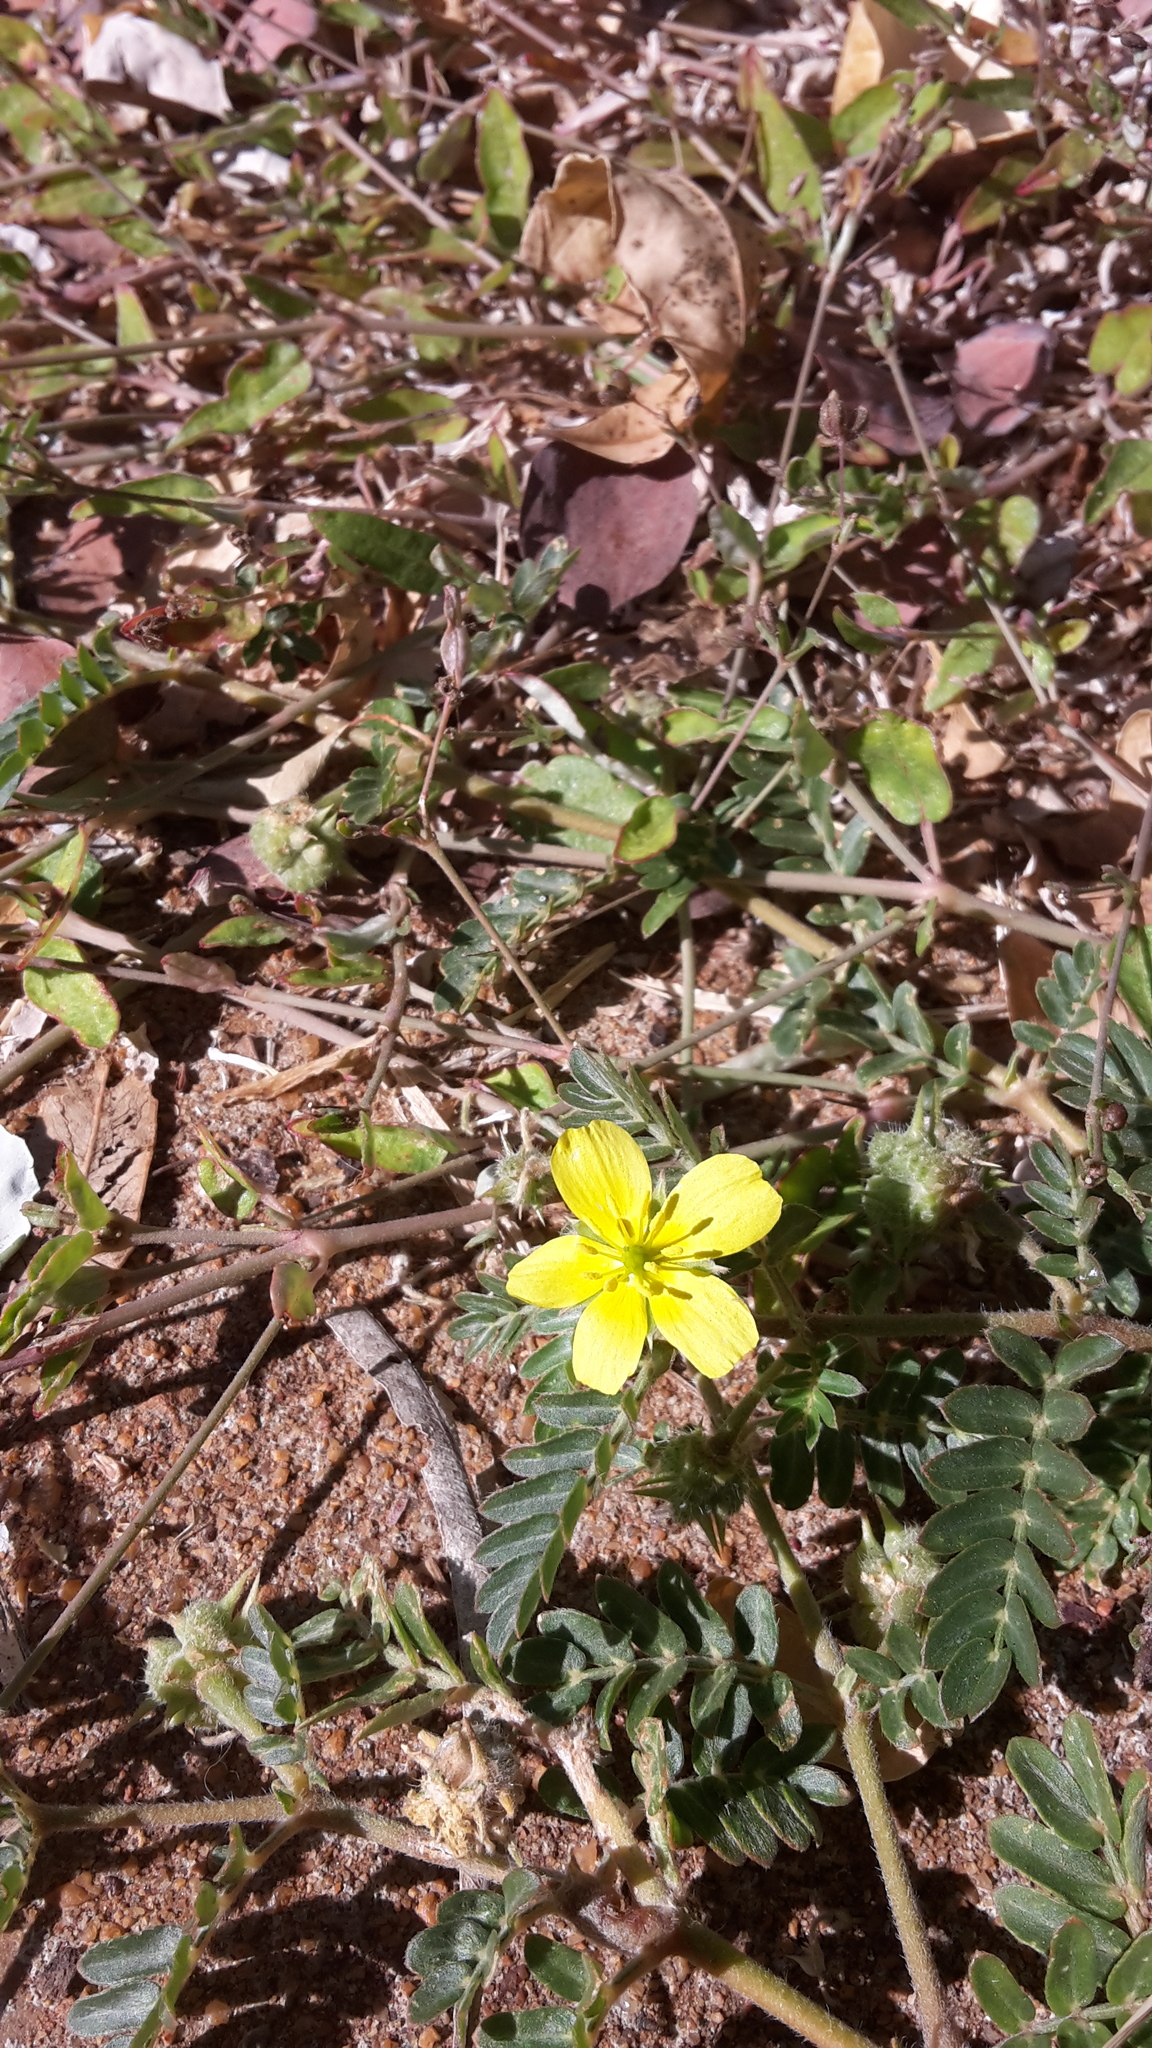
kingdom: Plantae
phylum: Tracheophyta
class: Magnoliopsida
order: Zygophyllales
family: Zygophyllaceae
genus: Tribulus
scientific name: Tribulus terrestris
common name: Puncturevine
